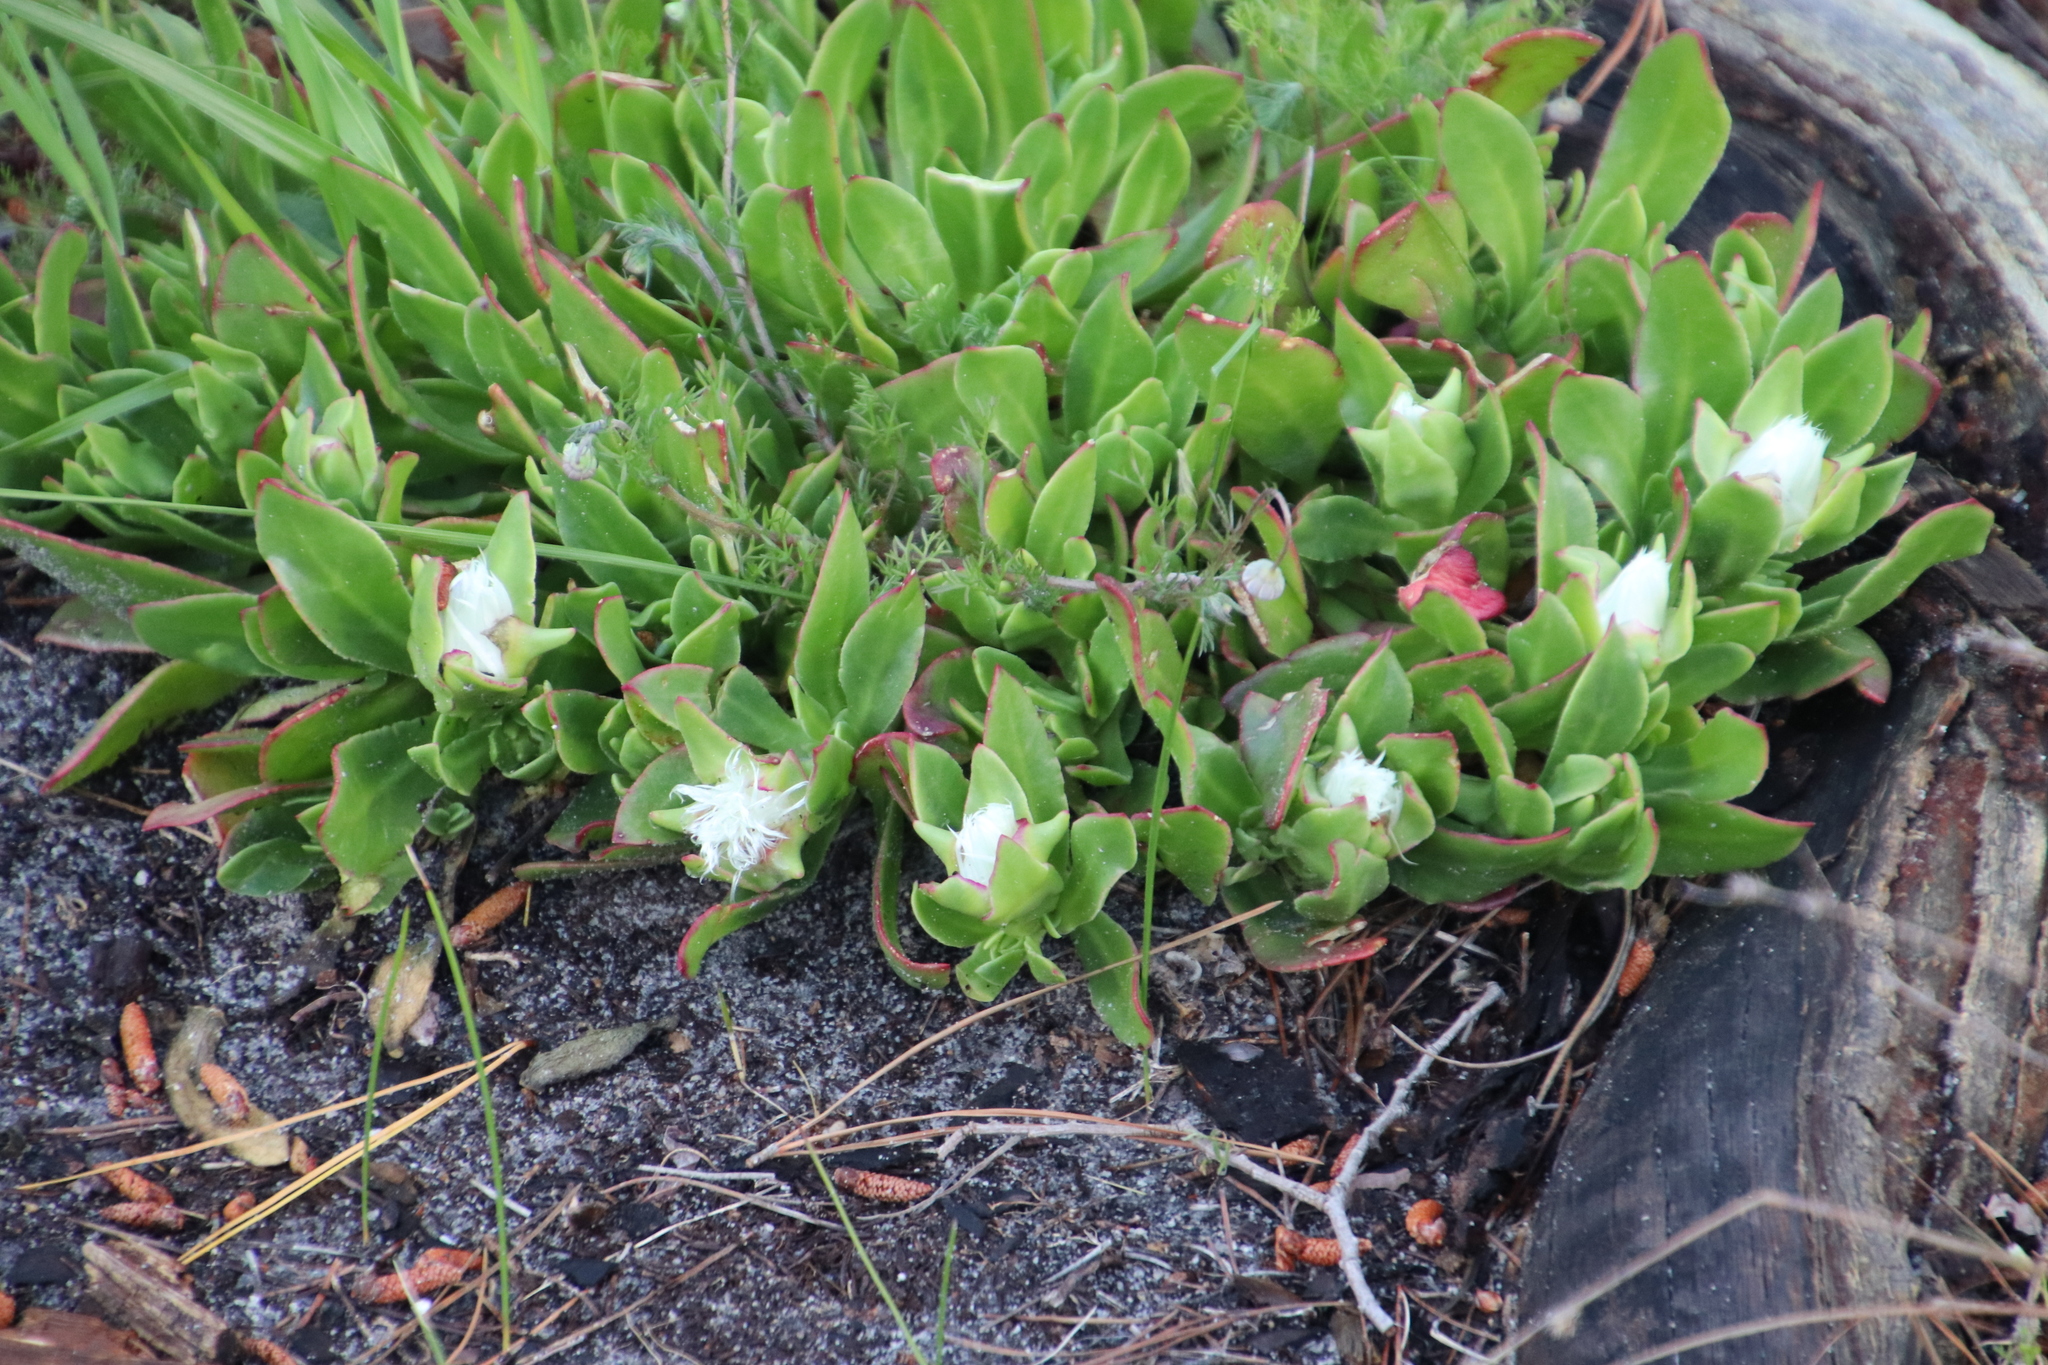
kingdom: Plantae
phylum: Tracheophyta
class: Magnoliopsida
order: Caryophyllales
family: Aizoaceae
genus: Skiatophytum
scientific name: Skiatophytum tripolium
